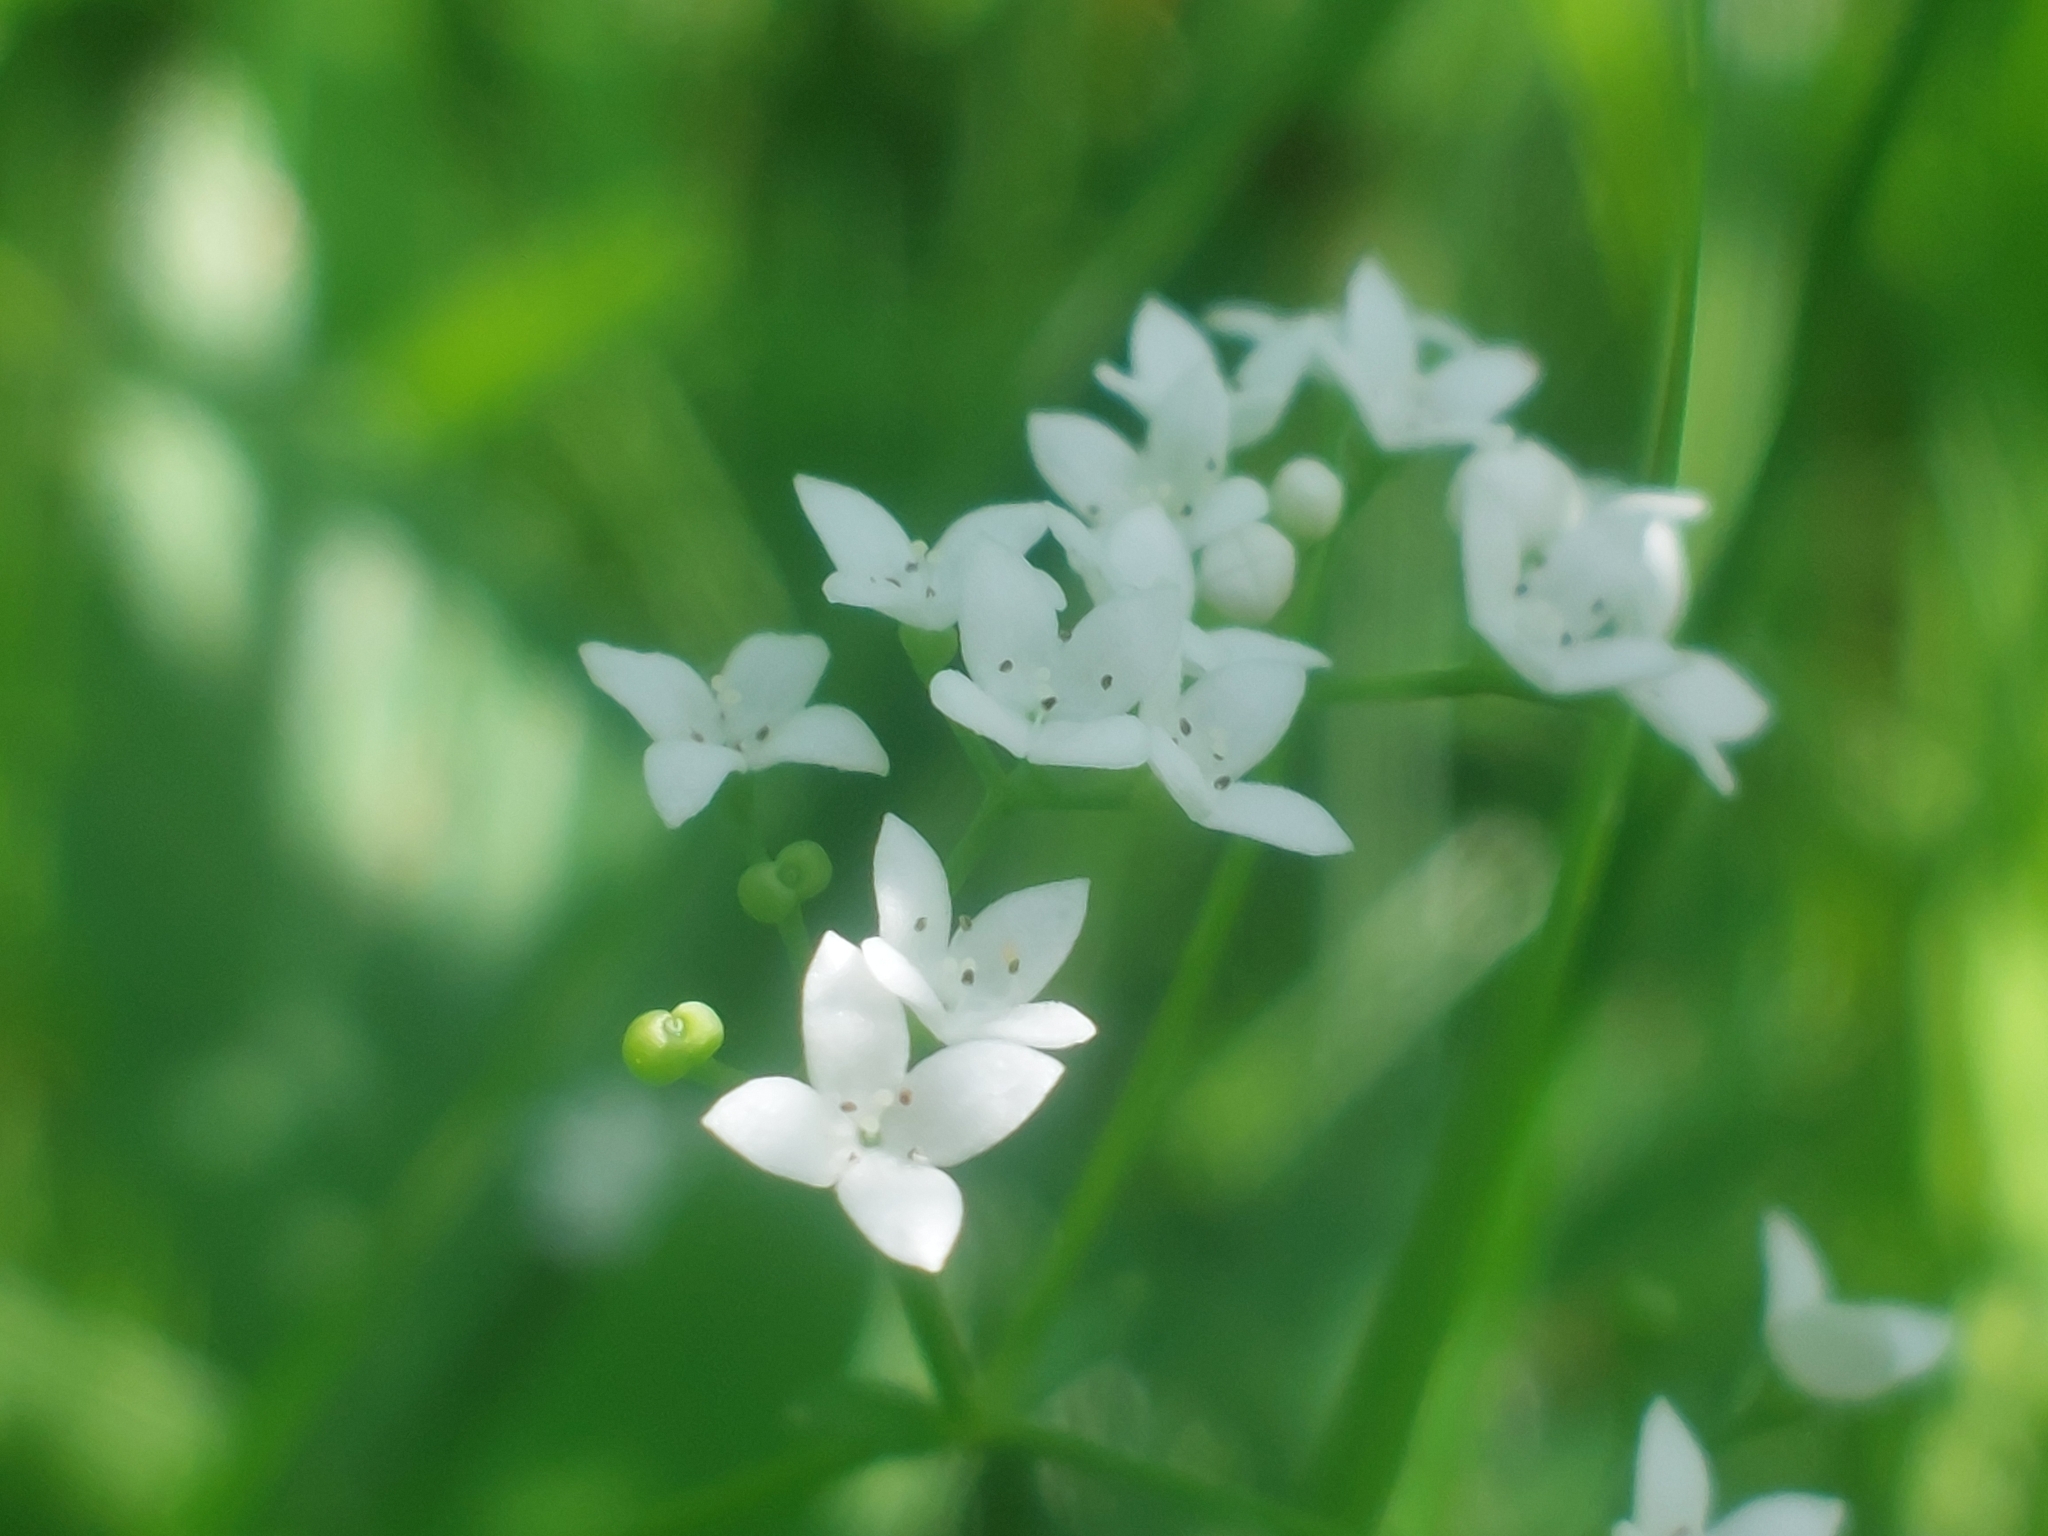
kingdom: Plantae
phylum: Tracheophyta
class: Magnoliopsida
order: Gentianales
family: Rubiaceae
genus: Galium
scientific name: Galium palustre
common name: Common marsh-bedstraw
